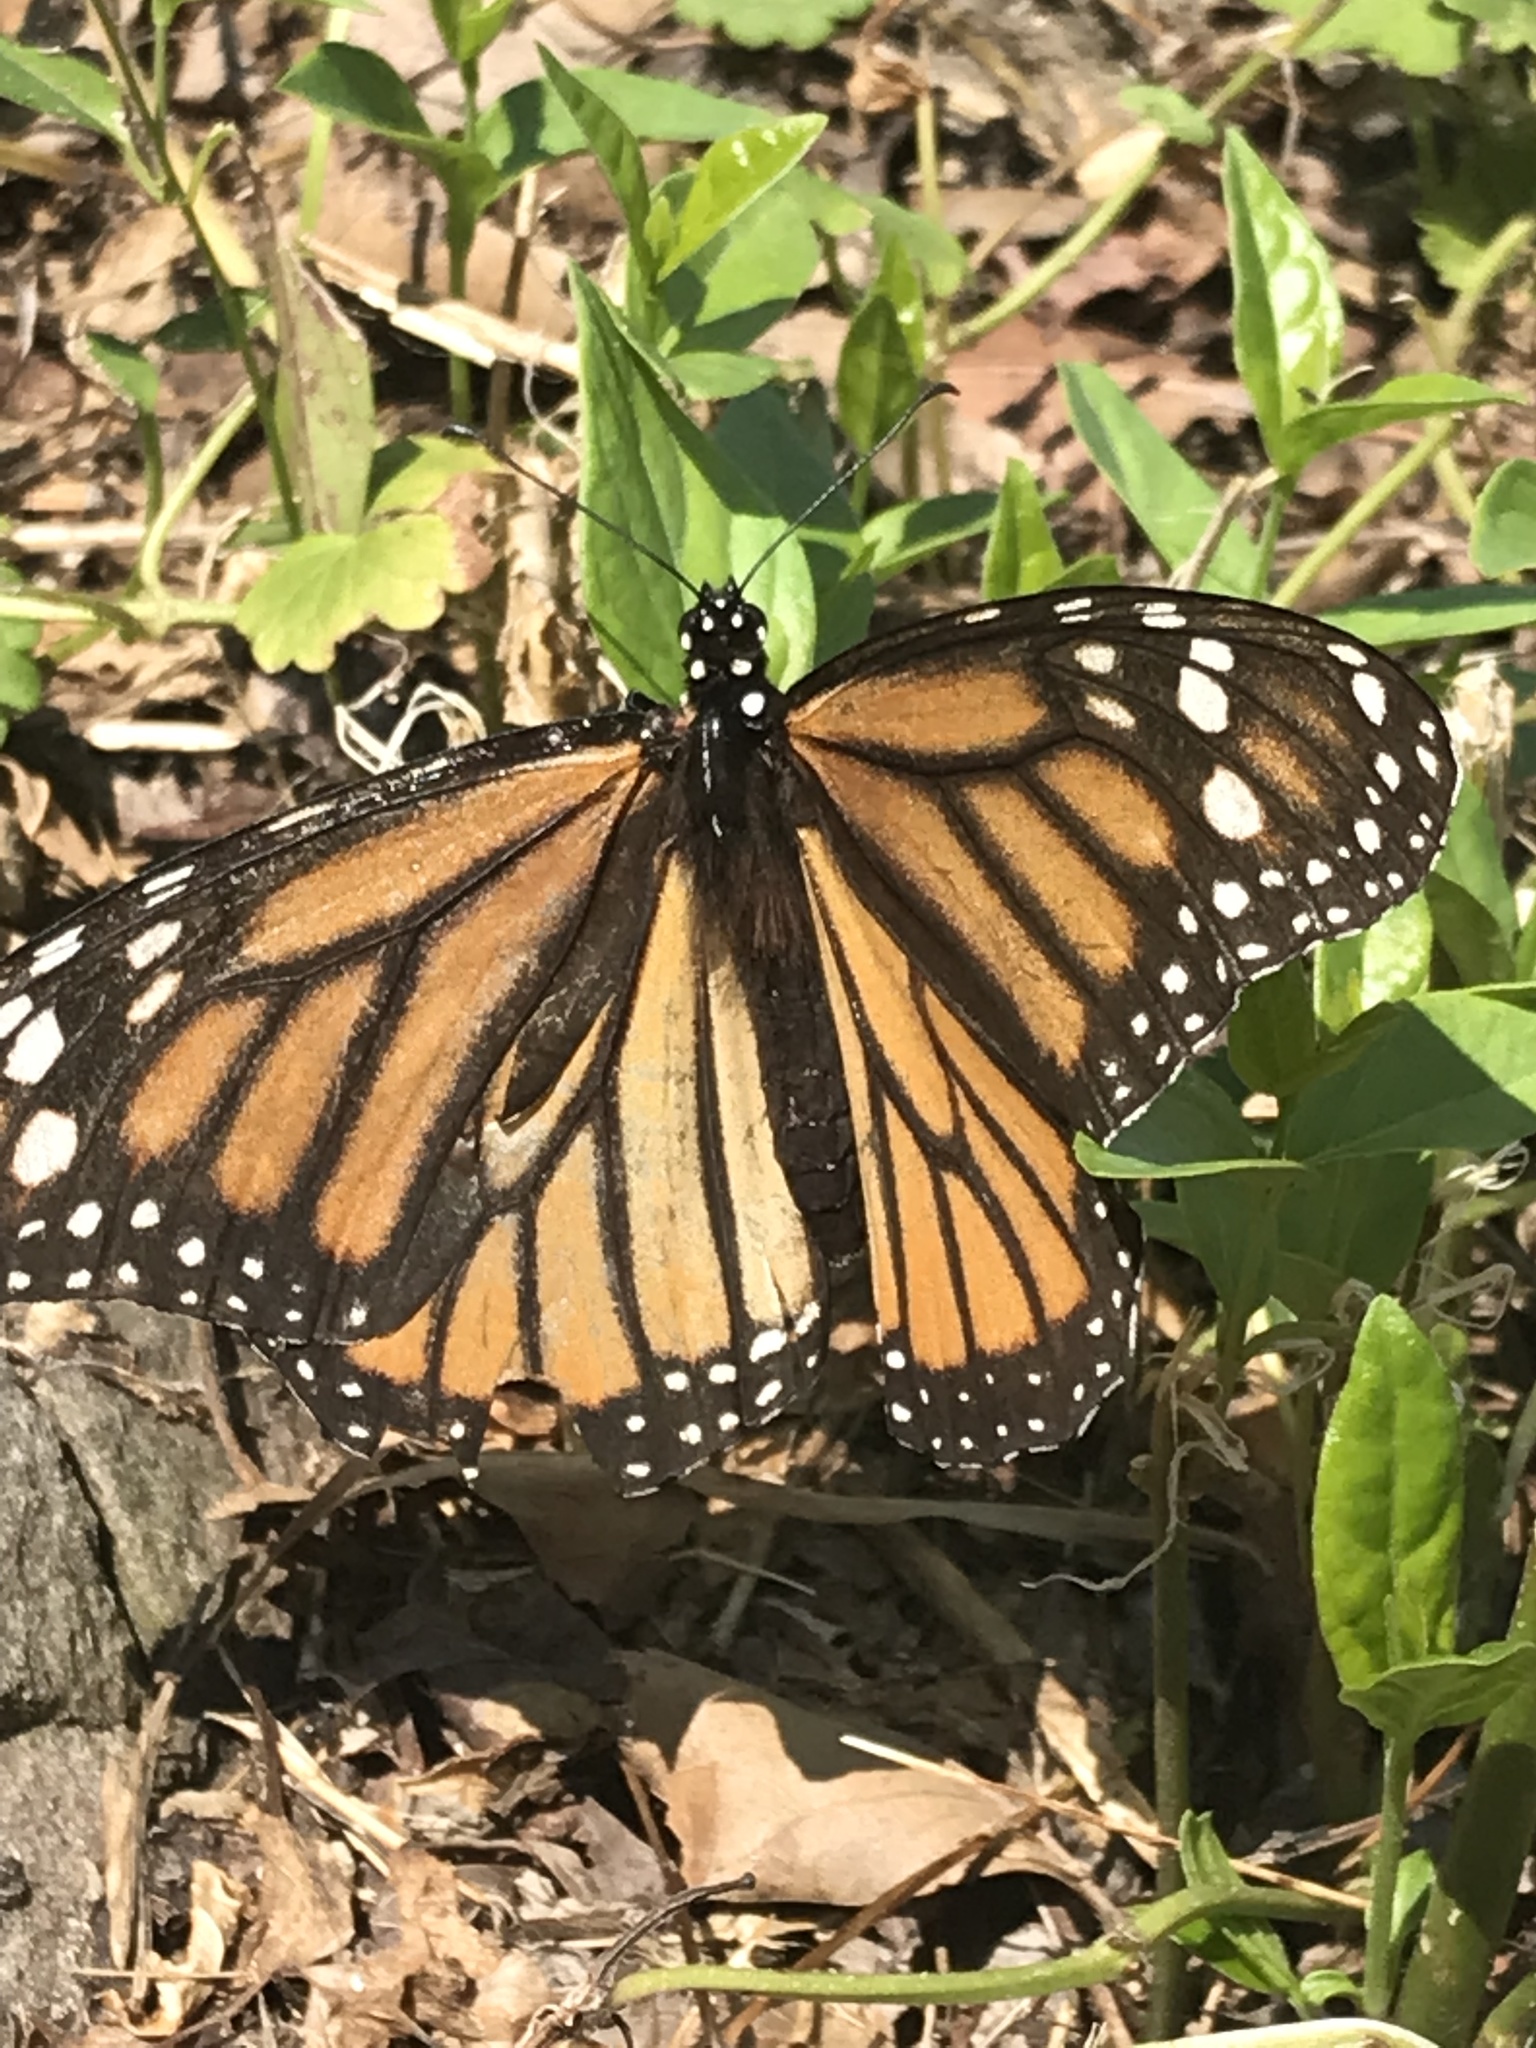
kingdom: Animalia
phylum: Arthropoda
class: Insecta
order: Lepidoptera
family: Nymphalidae
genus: Danaus
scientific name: Danaus plexippus
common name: Monarch
